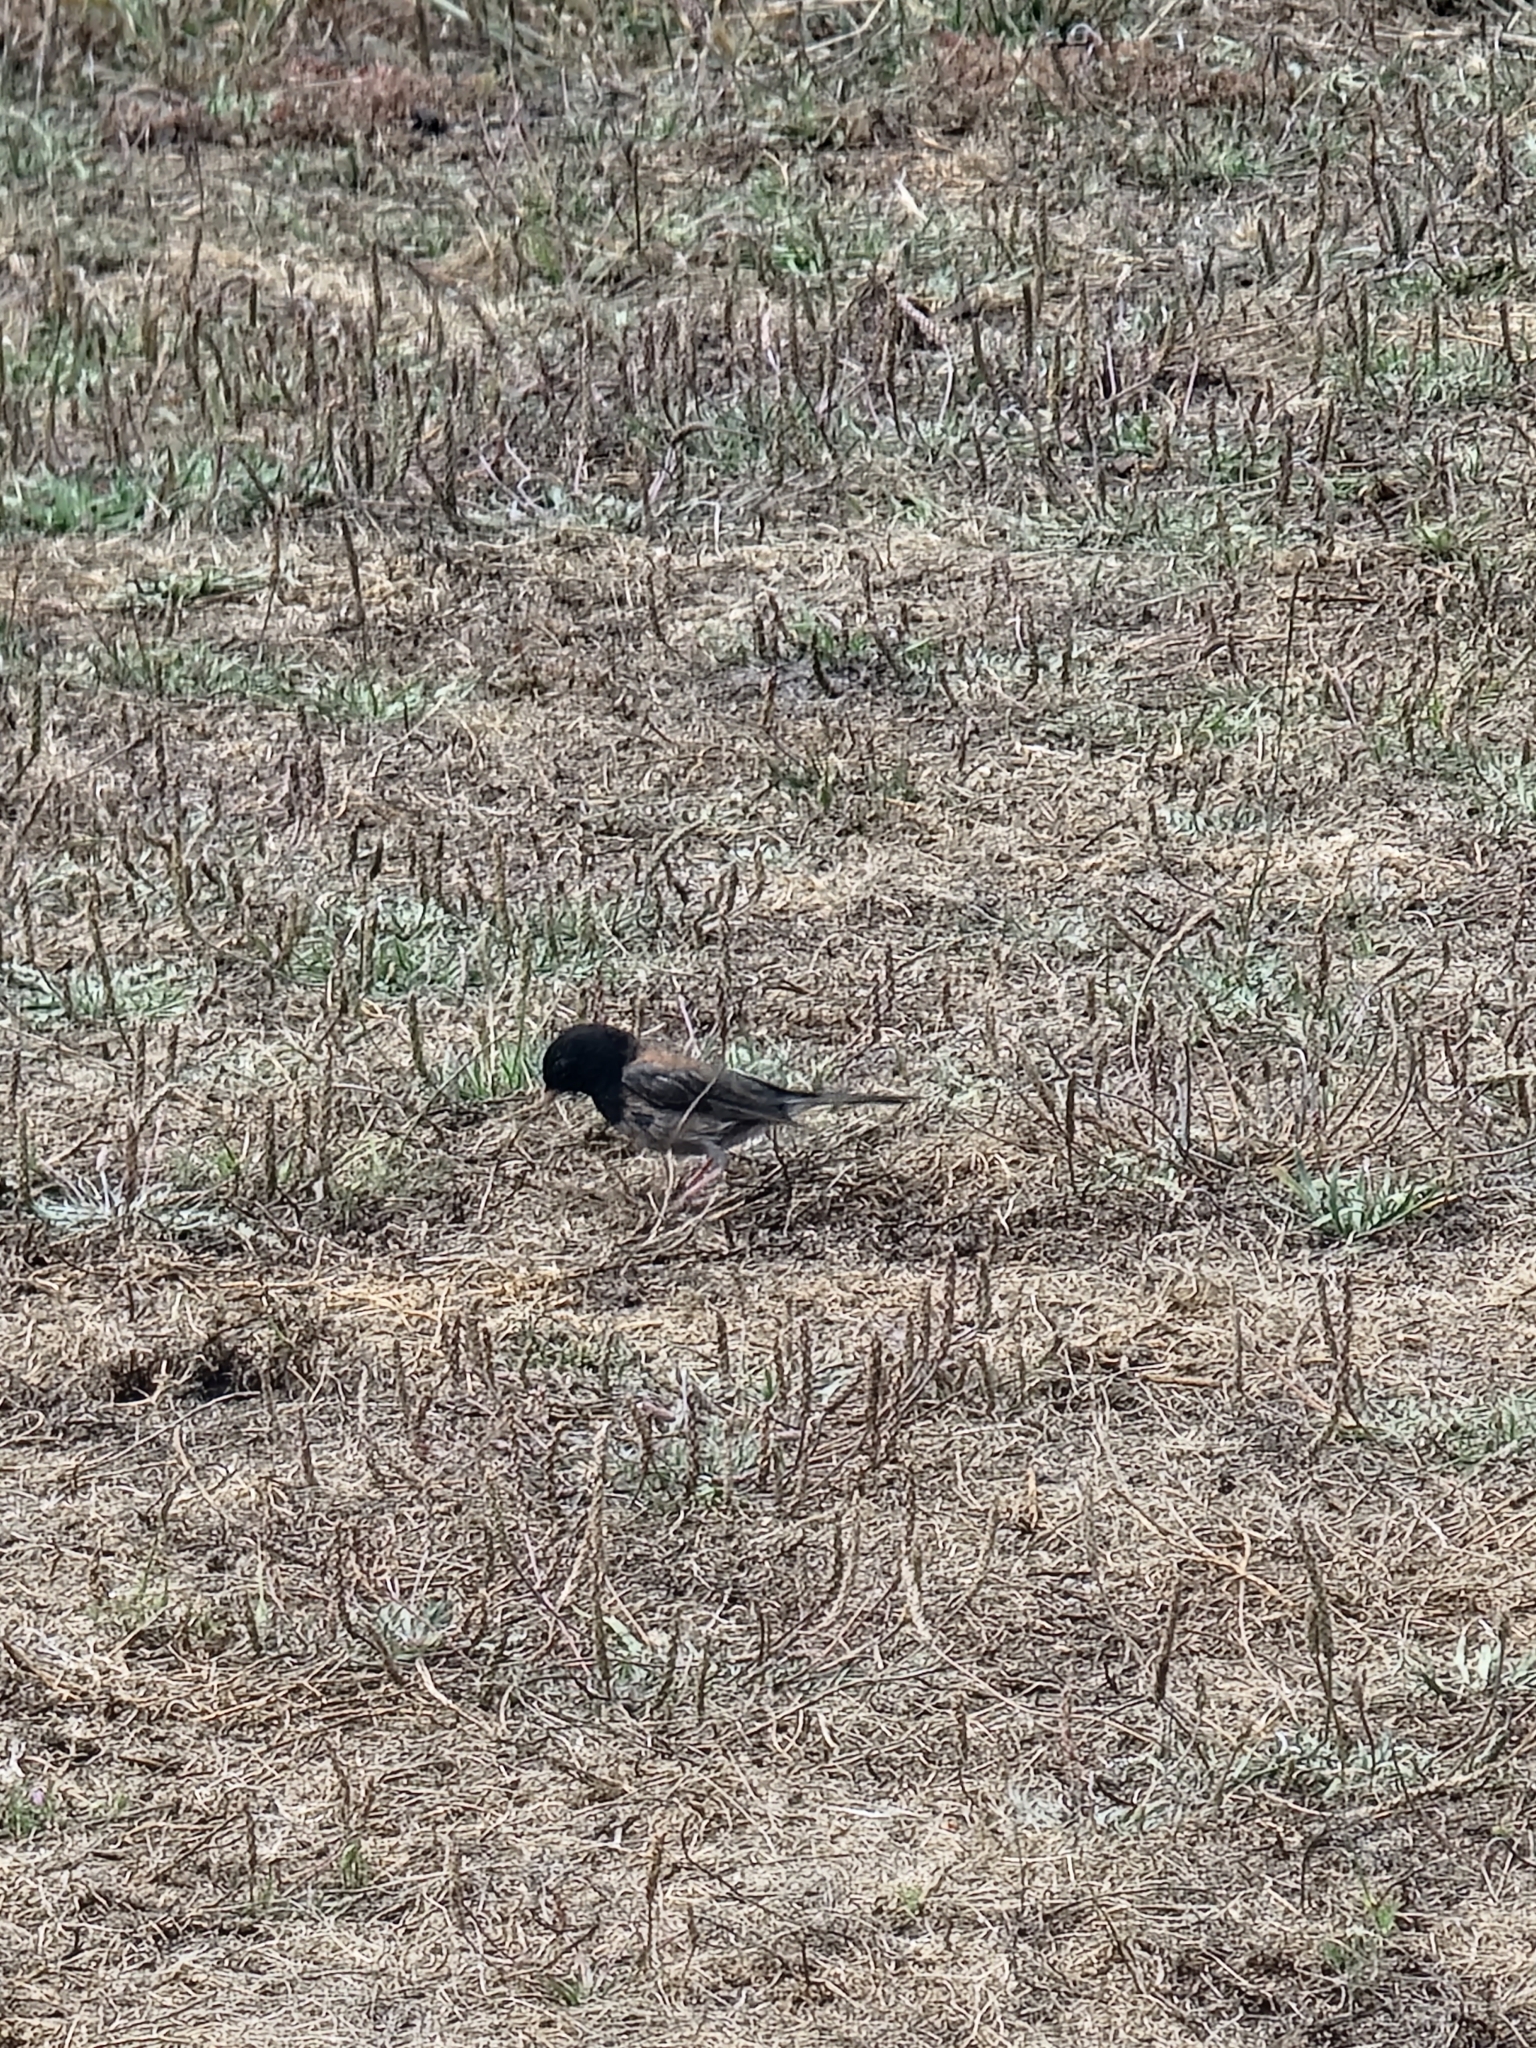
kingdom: Animalia
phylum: Chordata
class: Aves
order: Passeriformes
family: Passerellidae
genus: Junco
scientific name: Junco hyemalis
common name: Dark-eyed junco
